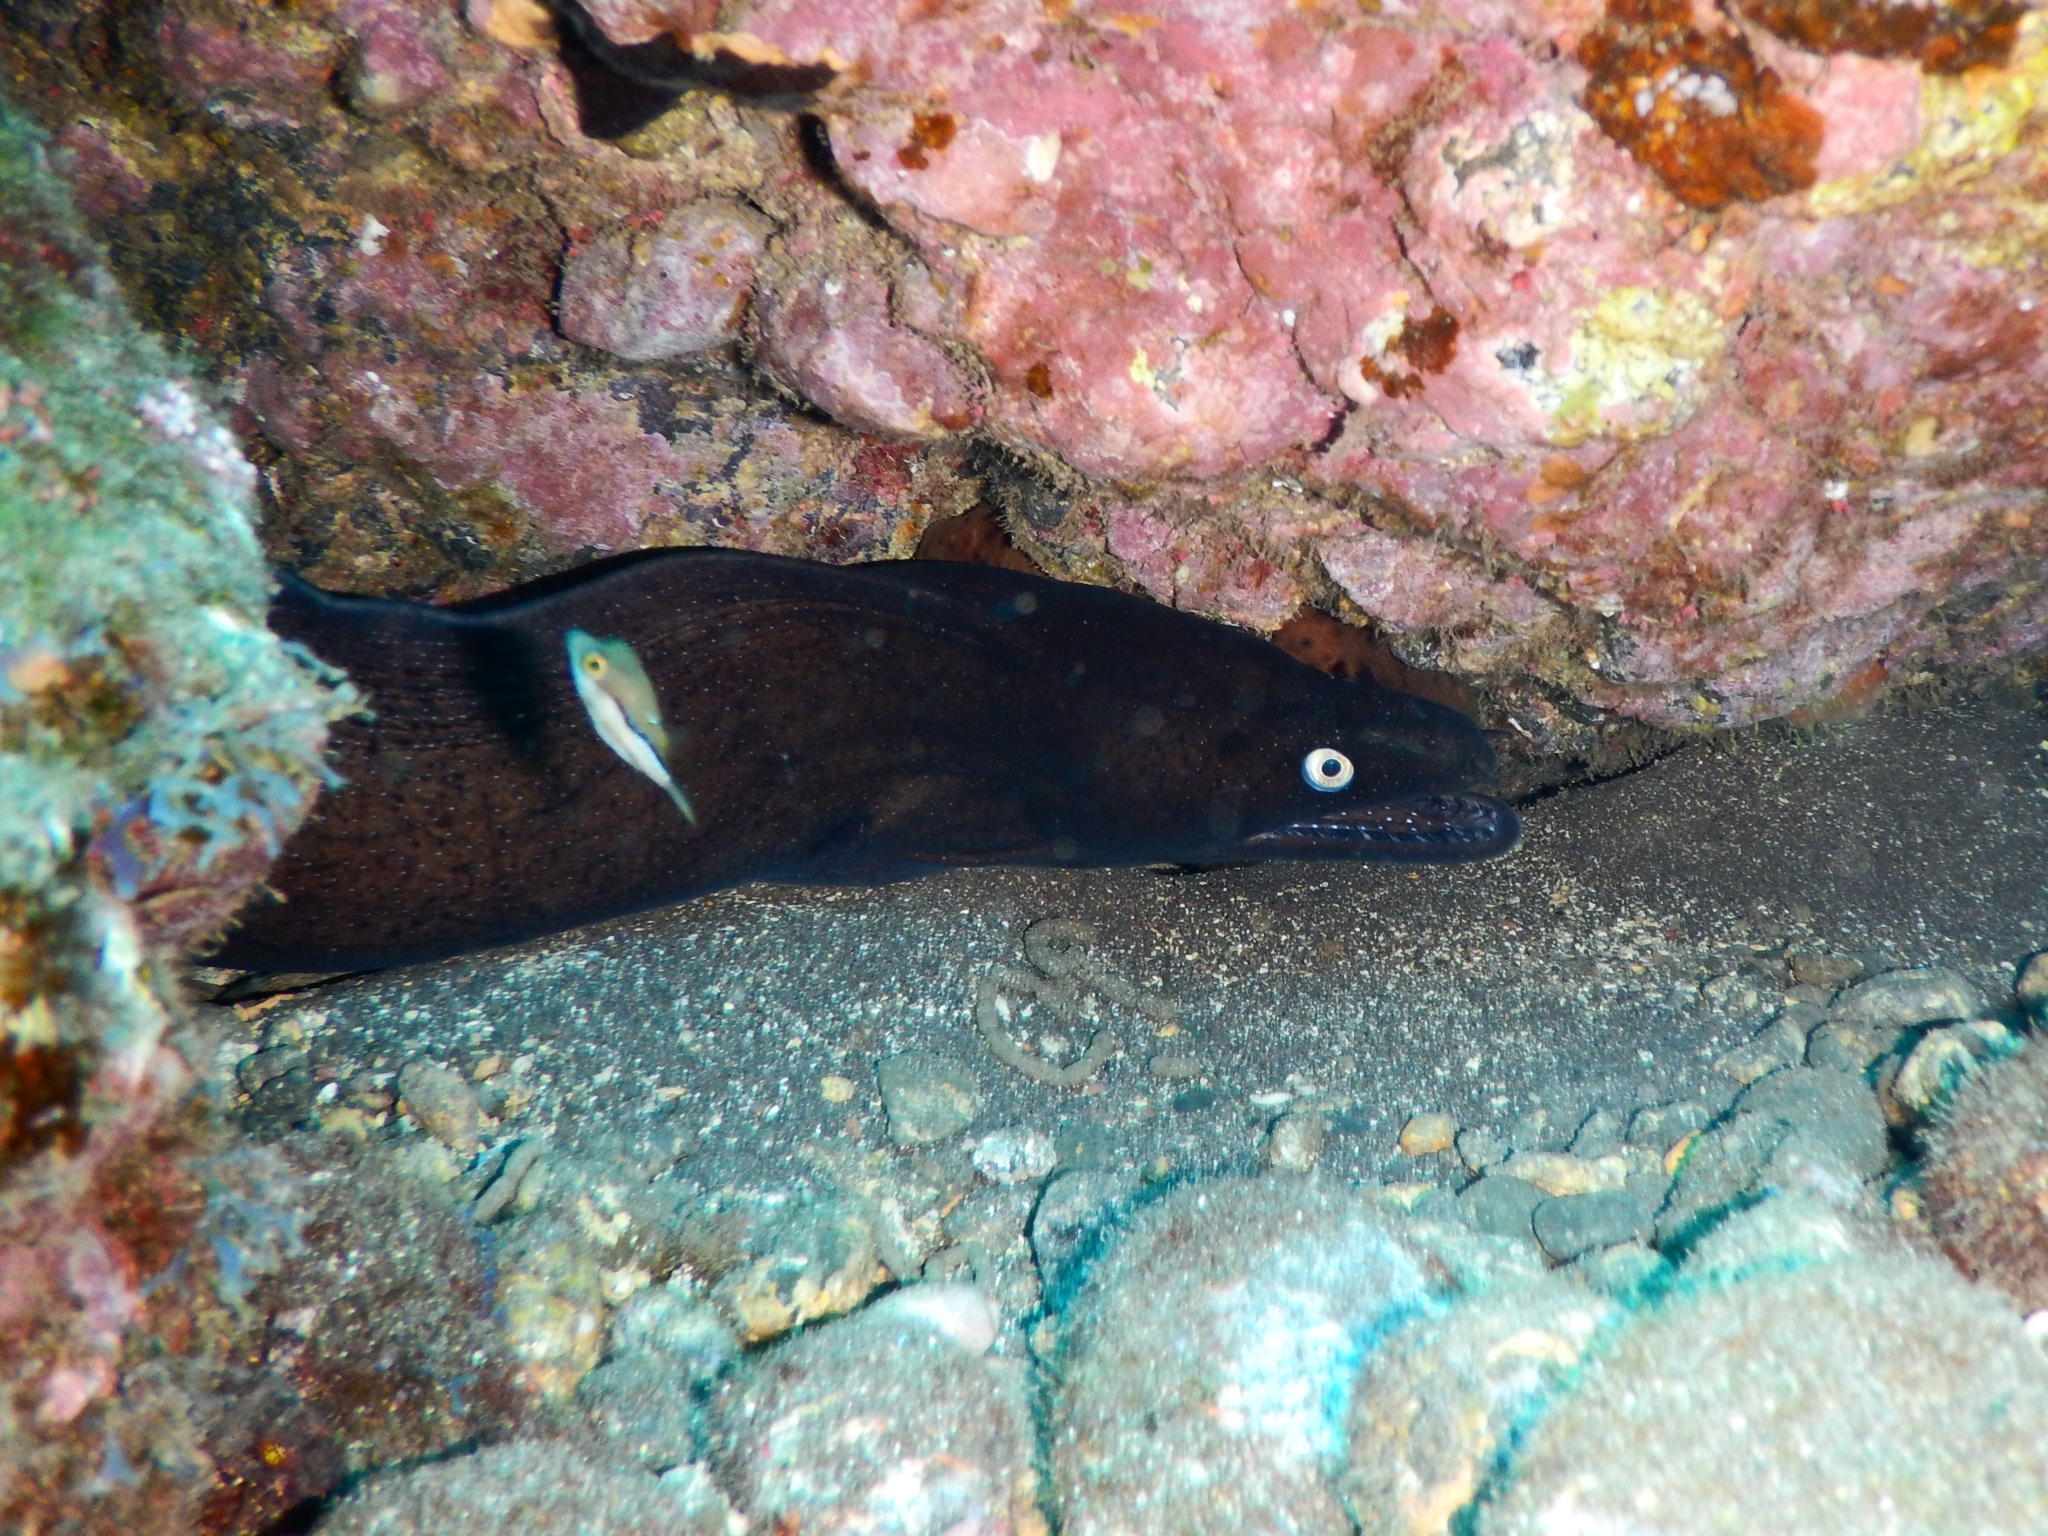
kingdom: Animalia
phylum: Chordata
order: Anguilliformes
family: Muraenidae
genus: Muraena
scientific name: Muraena augusti
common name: Mediterranean moray
